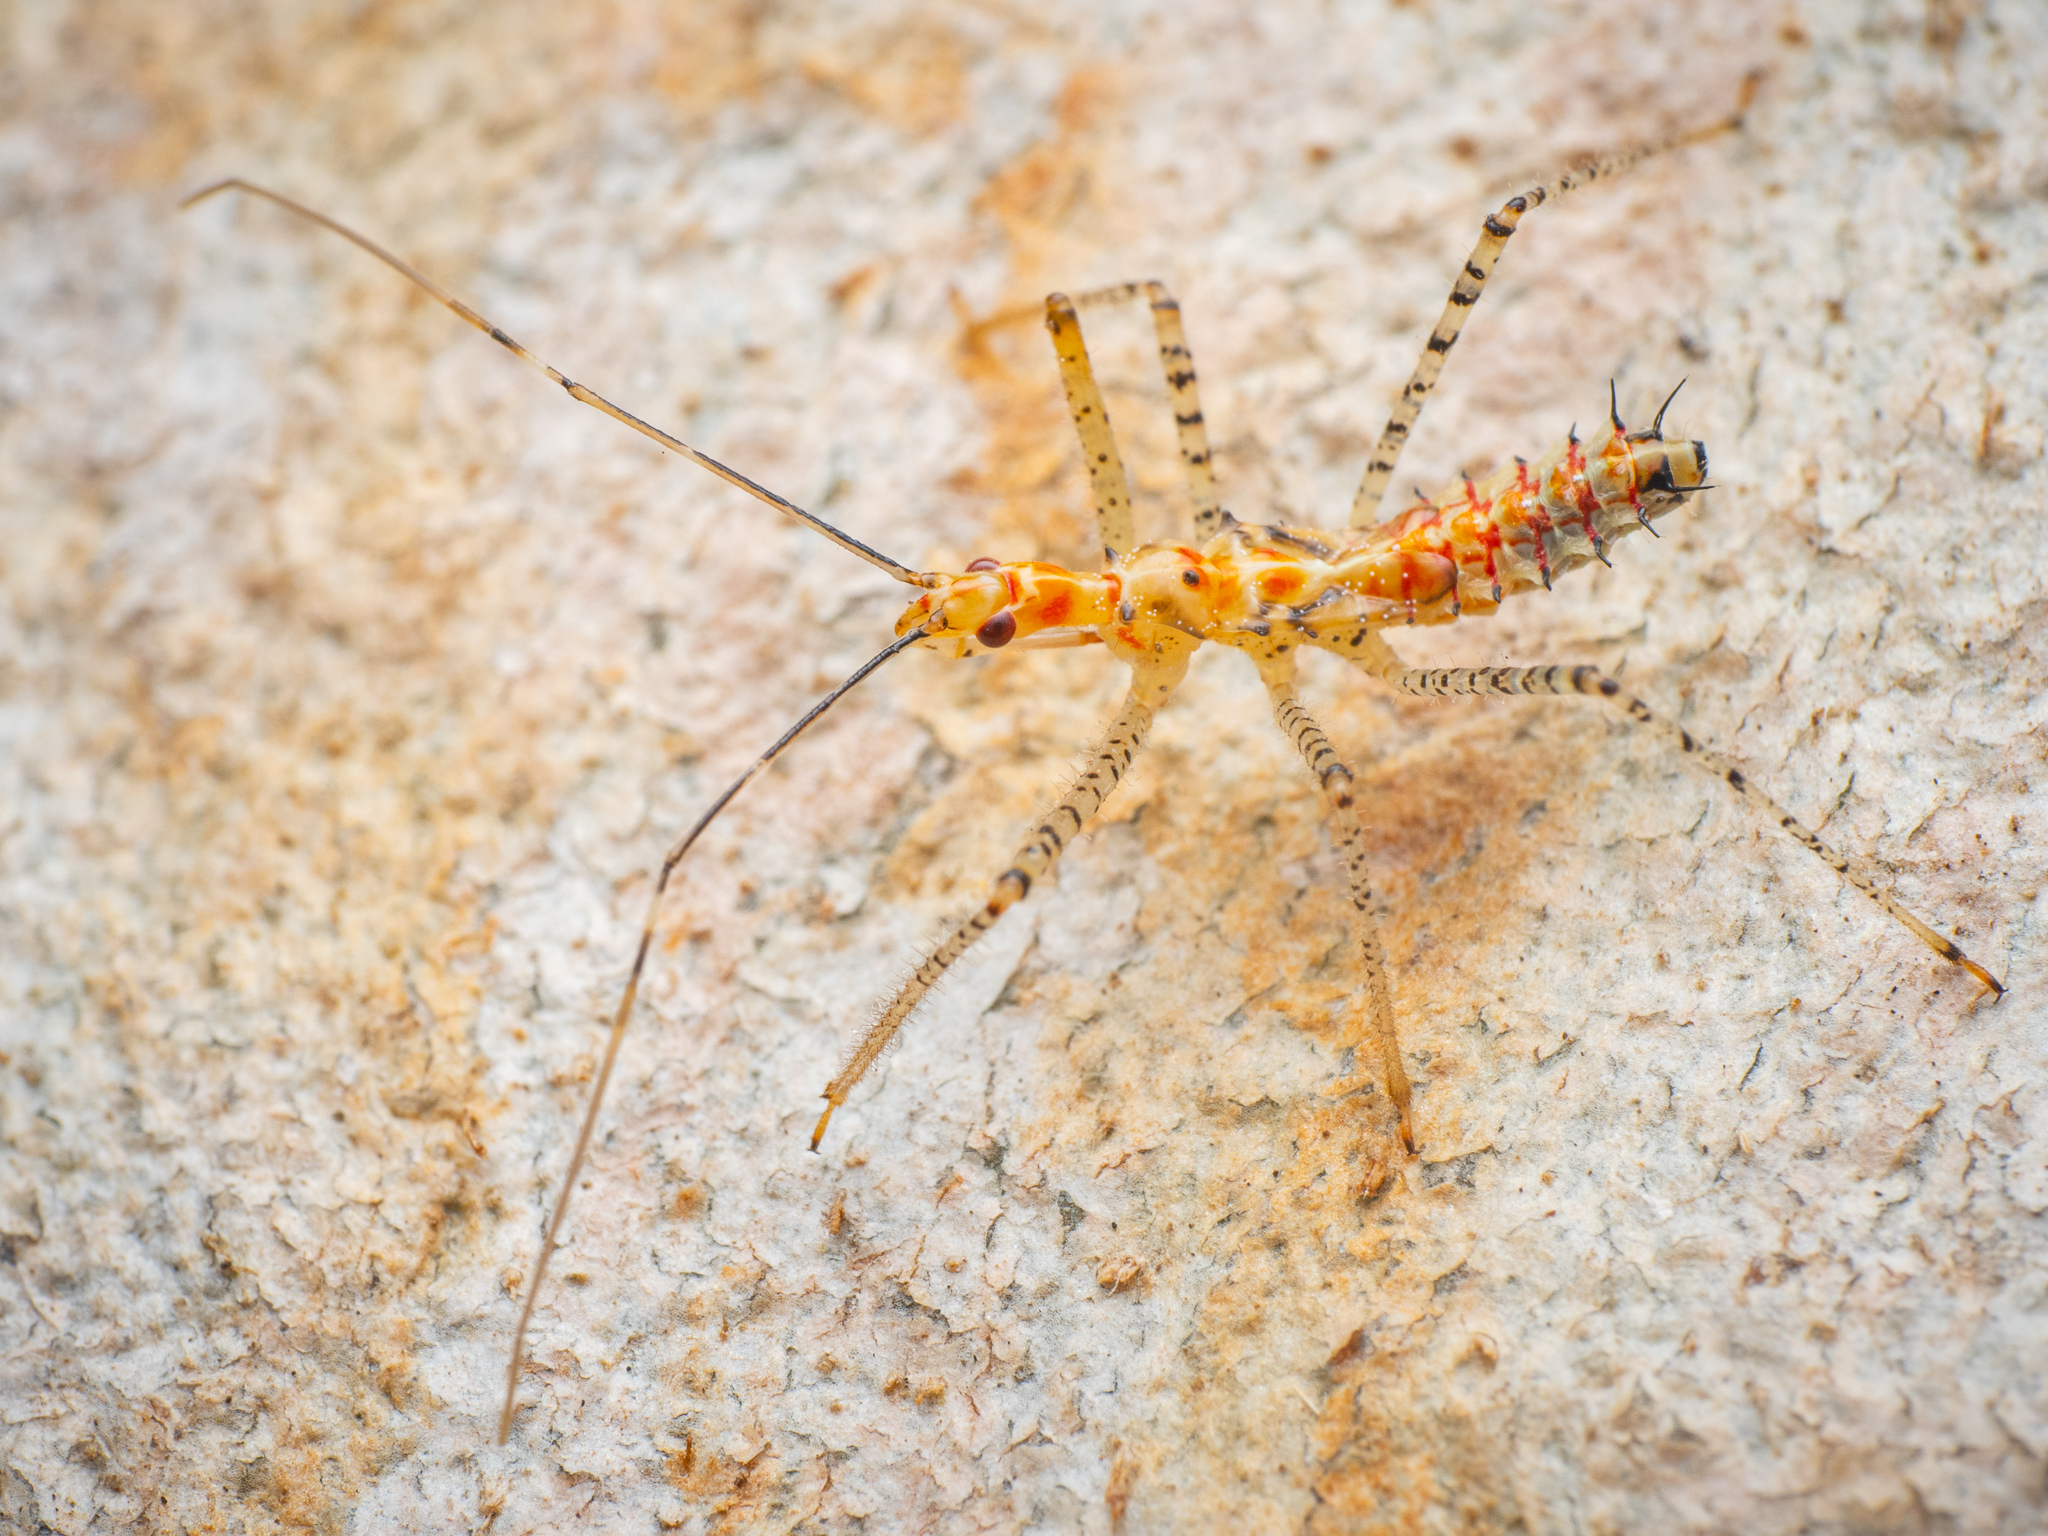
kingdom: Animalia
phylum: Arthropoda
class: Insecta
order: Hemiptera
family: Reduviidae
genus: Zelus
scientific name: Zelus renardii
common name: Assassin bug
